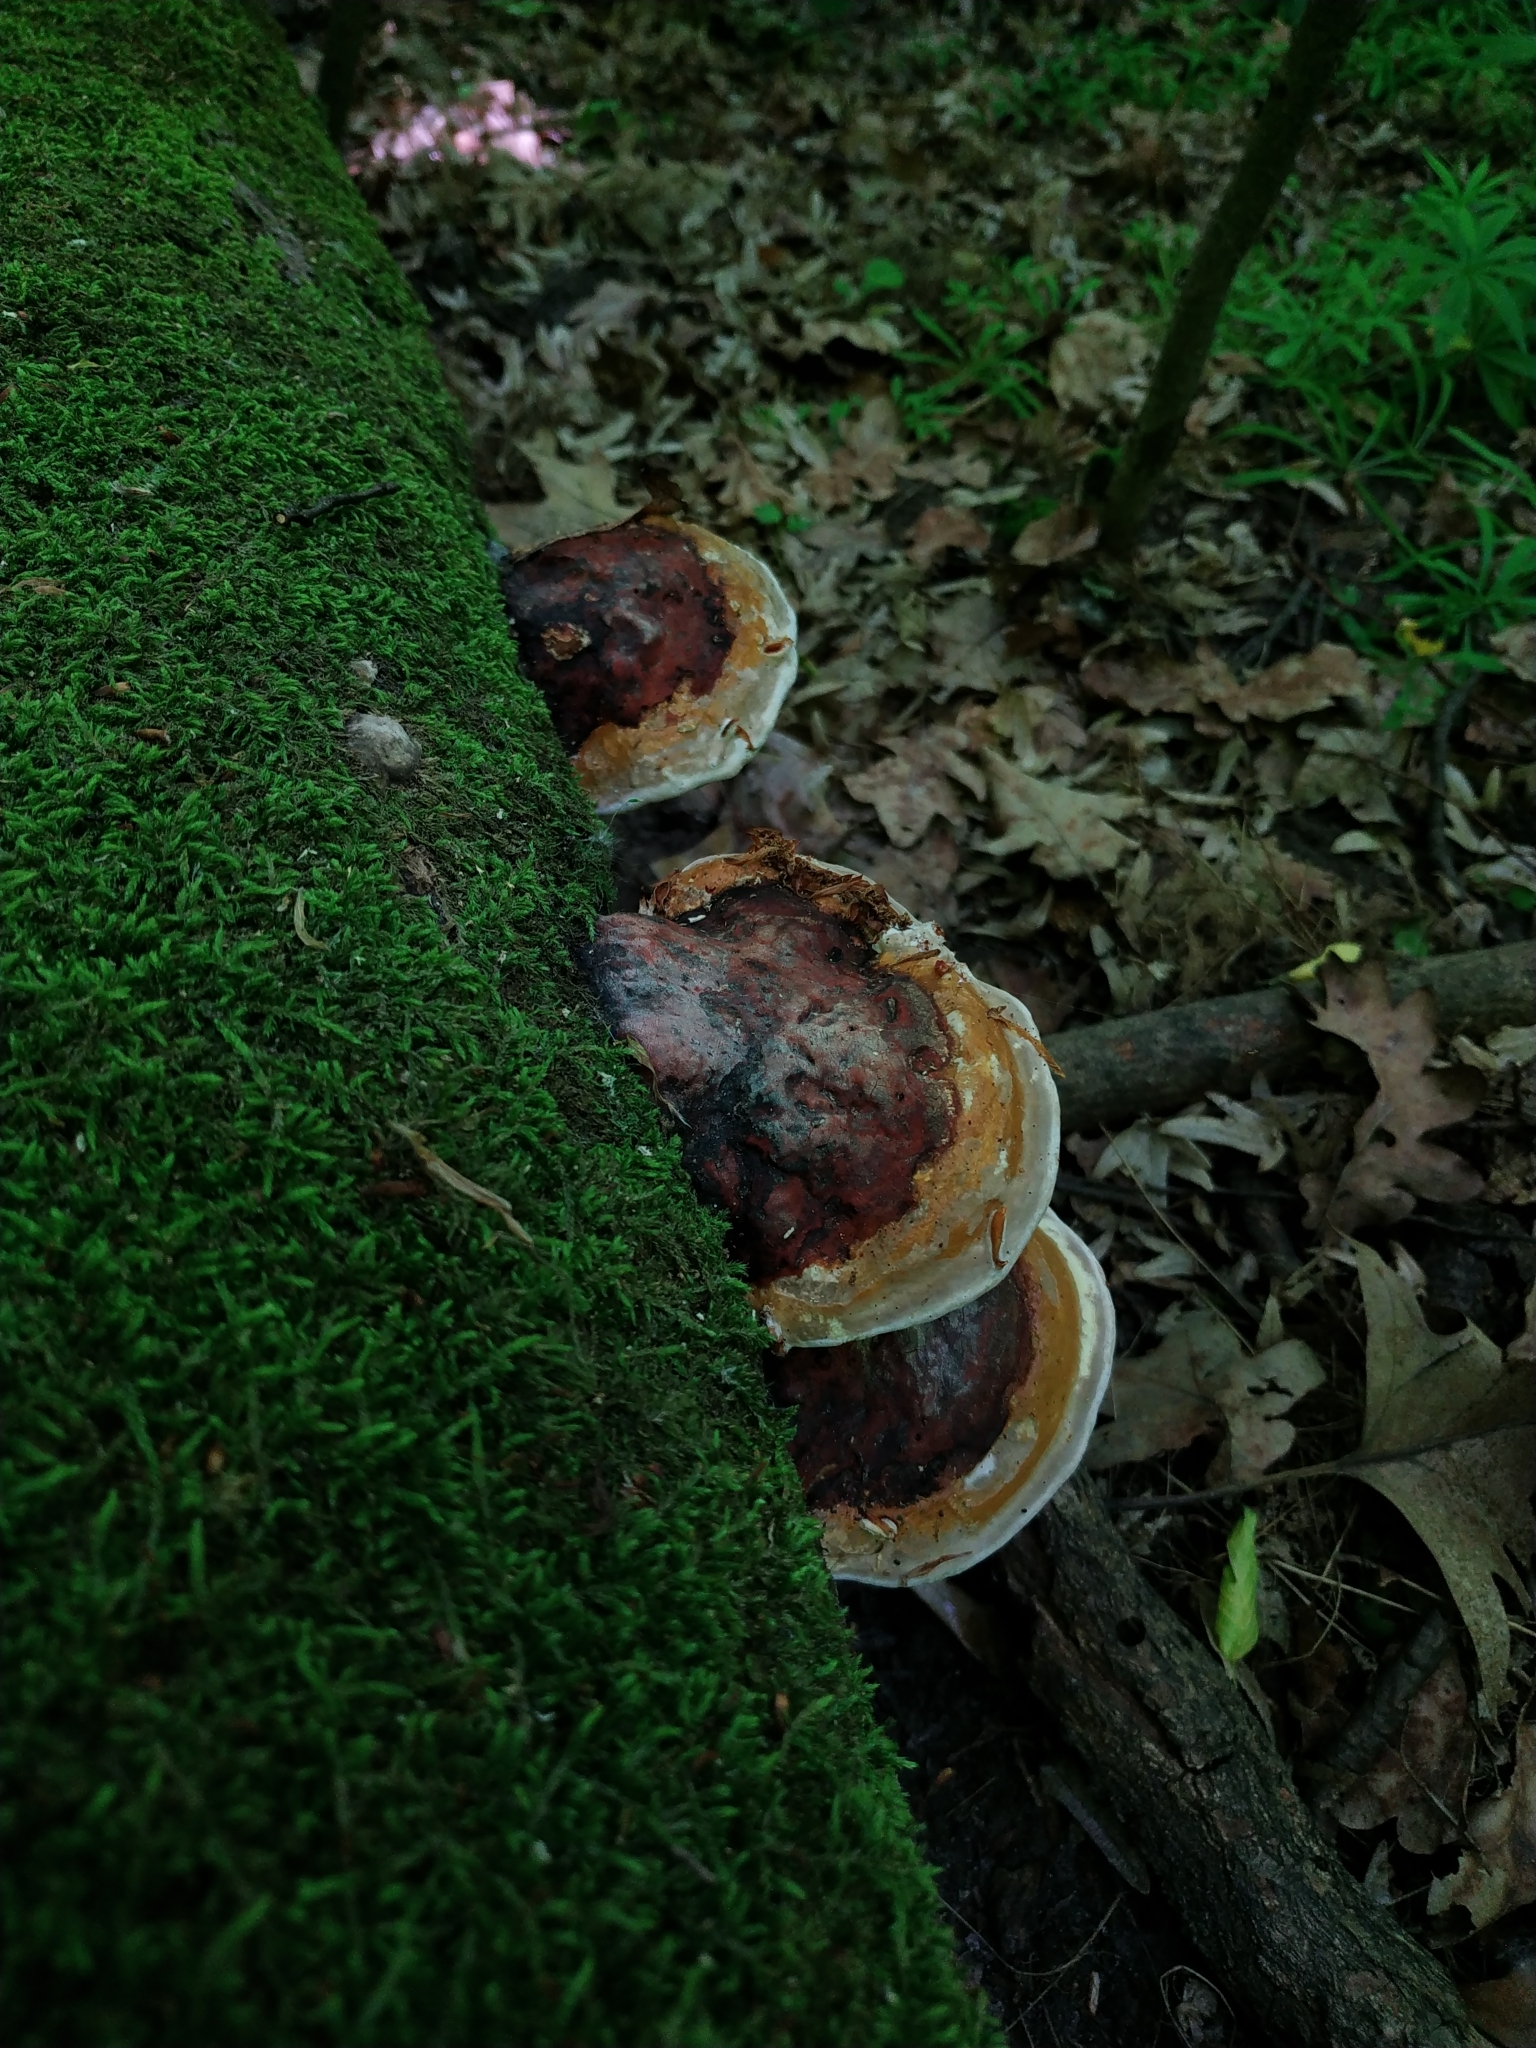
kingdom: Fungi
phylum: Basidiomycota
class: Agaricomycetes
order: Polyporales
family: Fomitopsidaceae
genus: Fomitopsis
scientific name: Fomitopsis pinicola
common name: Red-belted bracket
